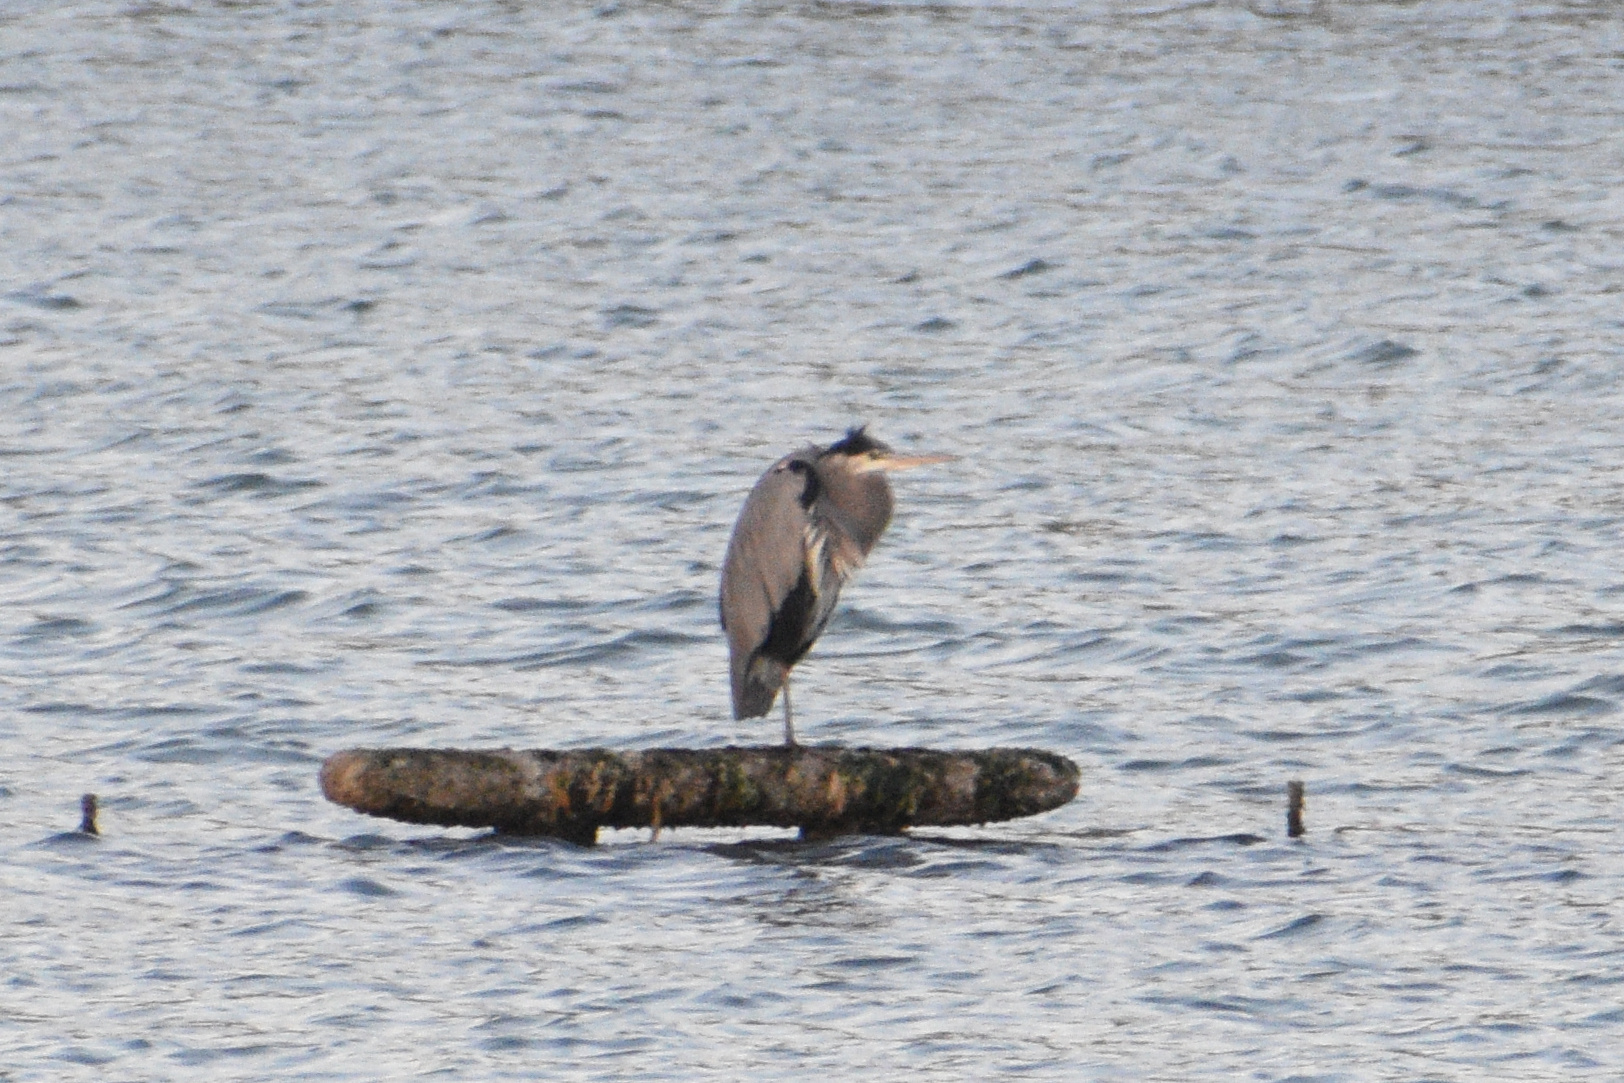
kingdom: Animalia
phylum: Chordata
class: Aves
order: Pelecaniformes
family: Ardeidae
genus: Ardea
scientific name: Ardea herodias
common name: Great blue heron
